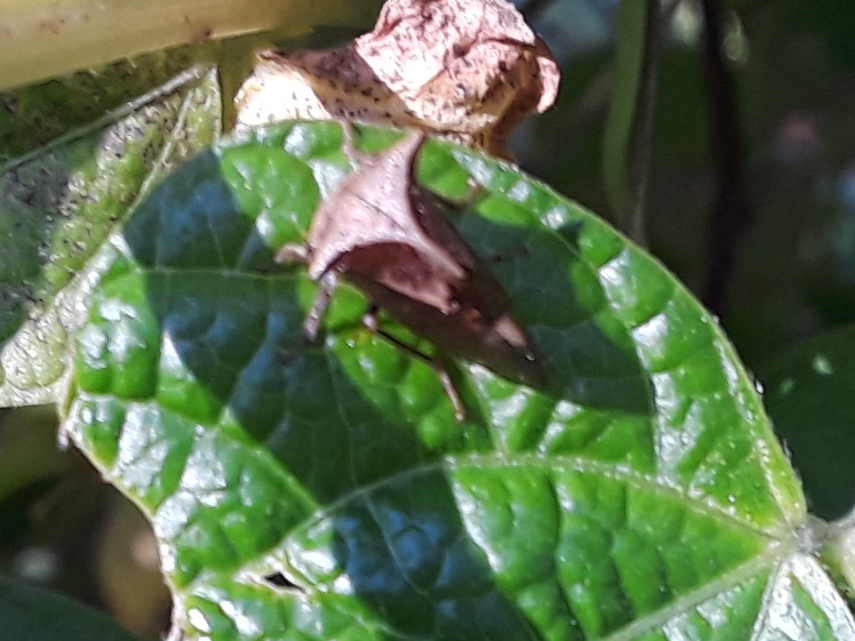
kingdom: Animalia
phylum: Arthropoda
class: Insecta
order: Hemiptera
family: Membracidae
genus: Stictocephala
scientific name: Stictocephala diceros
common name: Two-horned treehopper
